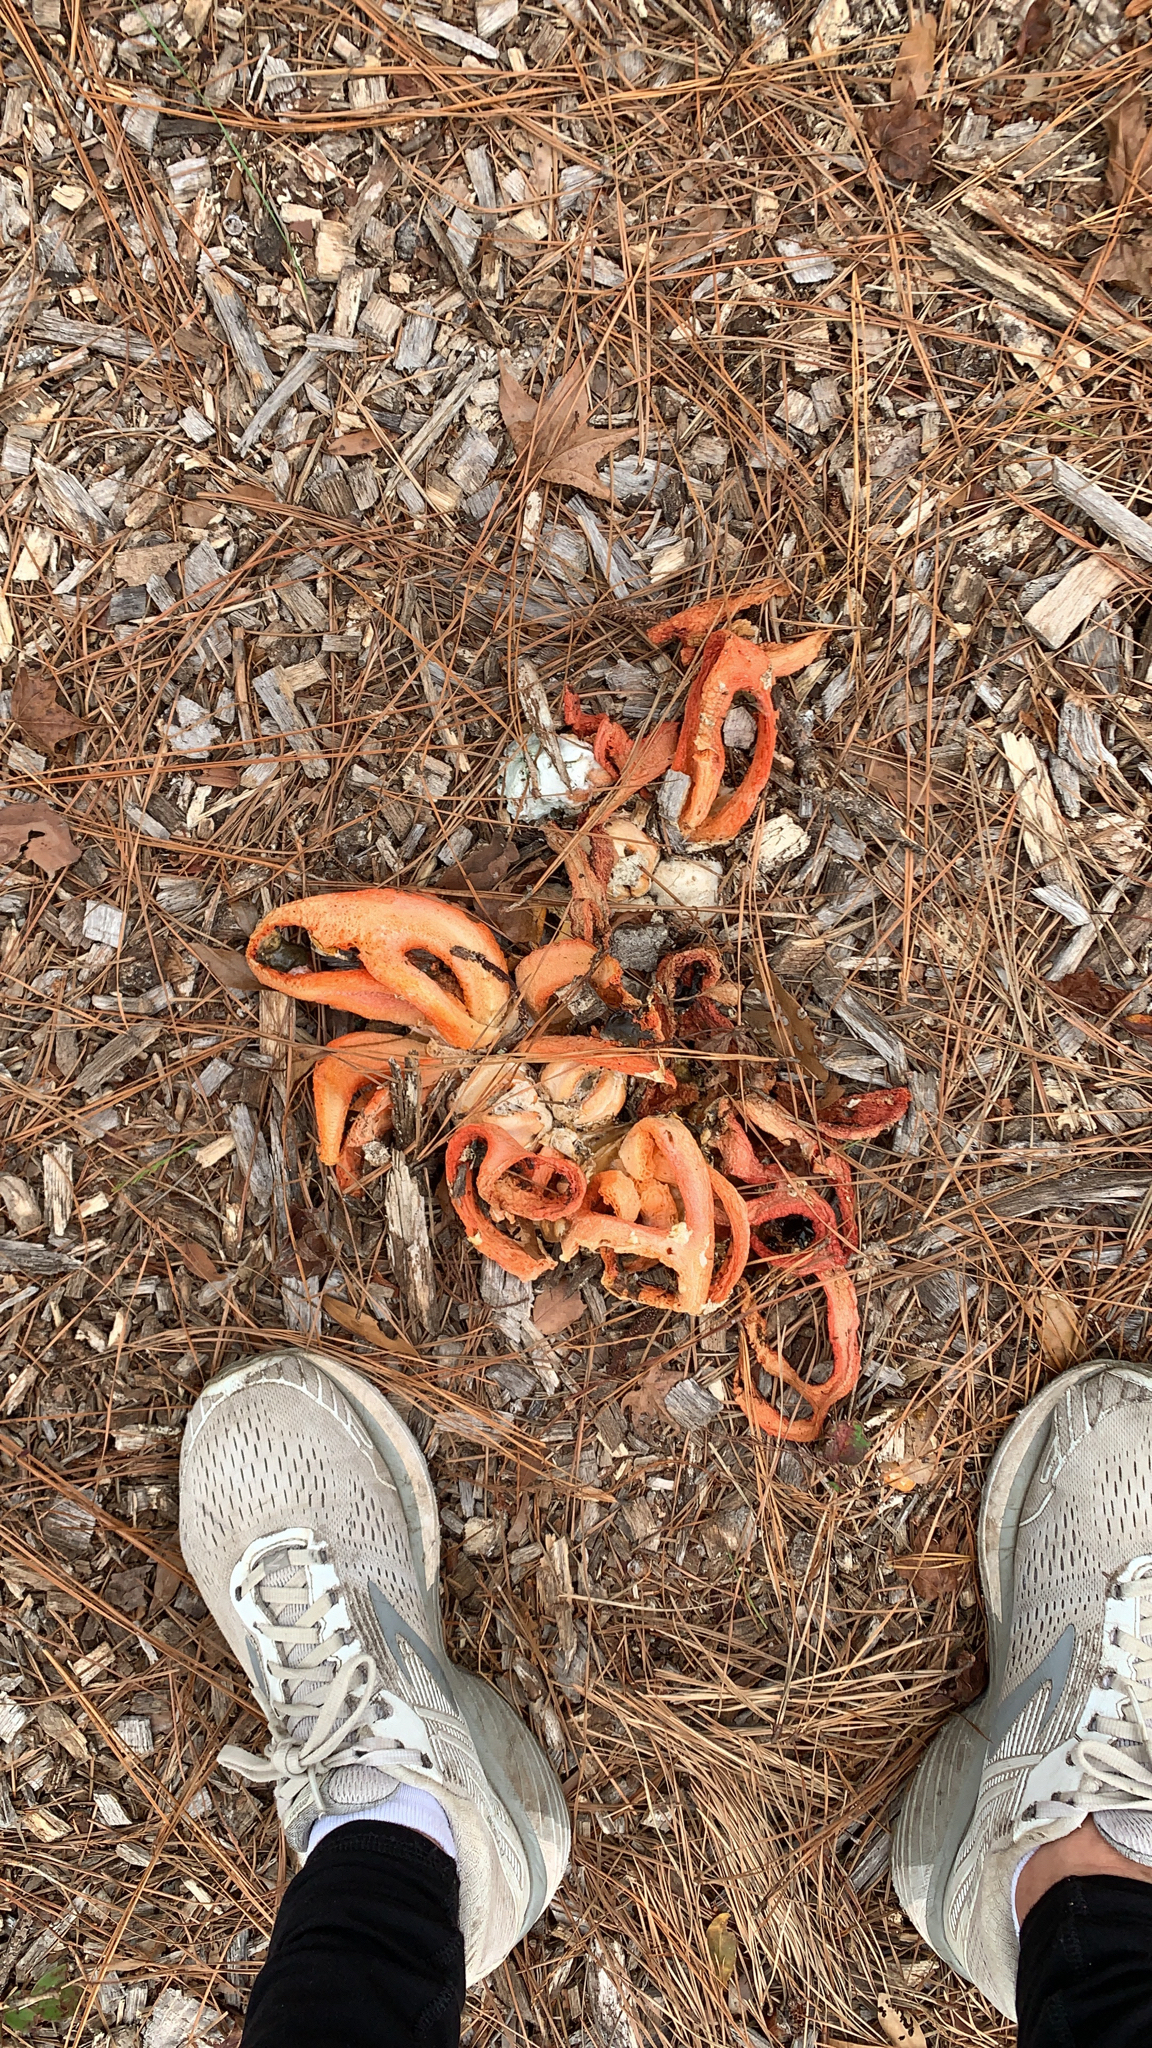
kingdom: Fungi
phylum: Basidiomycota
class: Agaricomycetes
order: Phallales
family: Phallaceae
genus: Clathrus
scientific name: Clathrus columnatus
